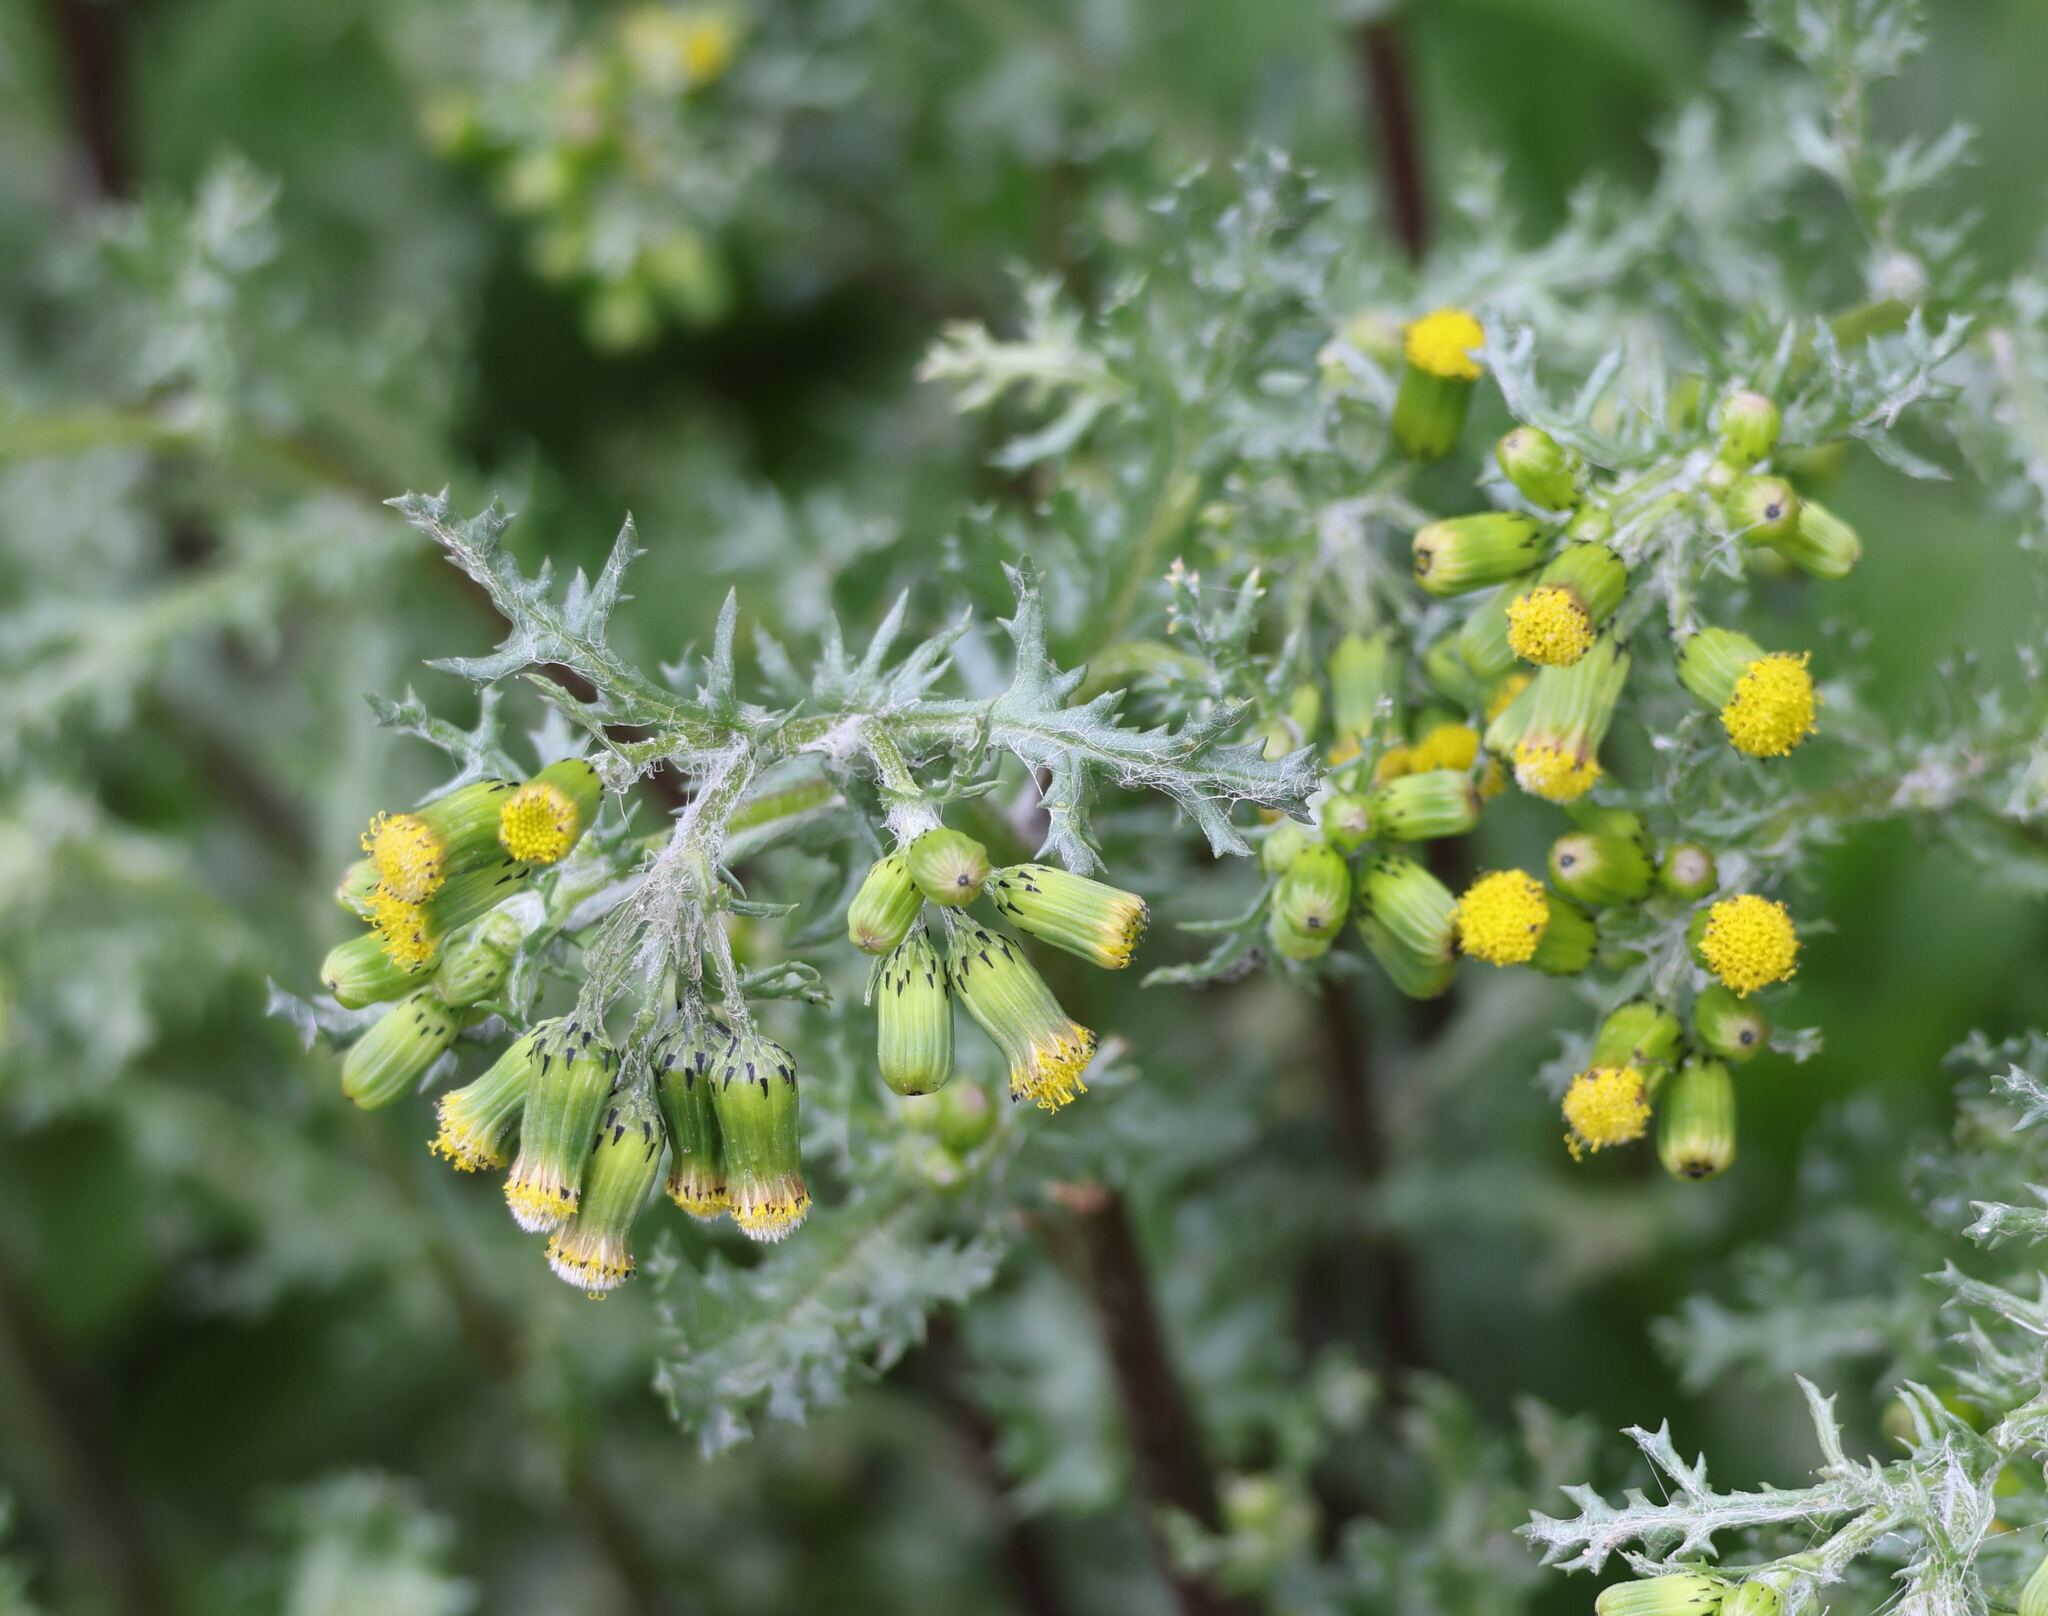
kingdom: Plantae
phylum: Tracheophyta
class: Magnoliopsida
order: Asterales
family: Asteraceae
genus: Senecio
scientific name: Senecio vulgaris
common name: Old-man-in-the-spring
